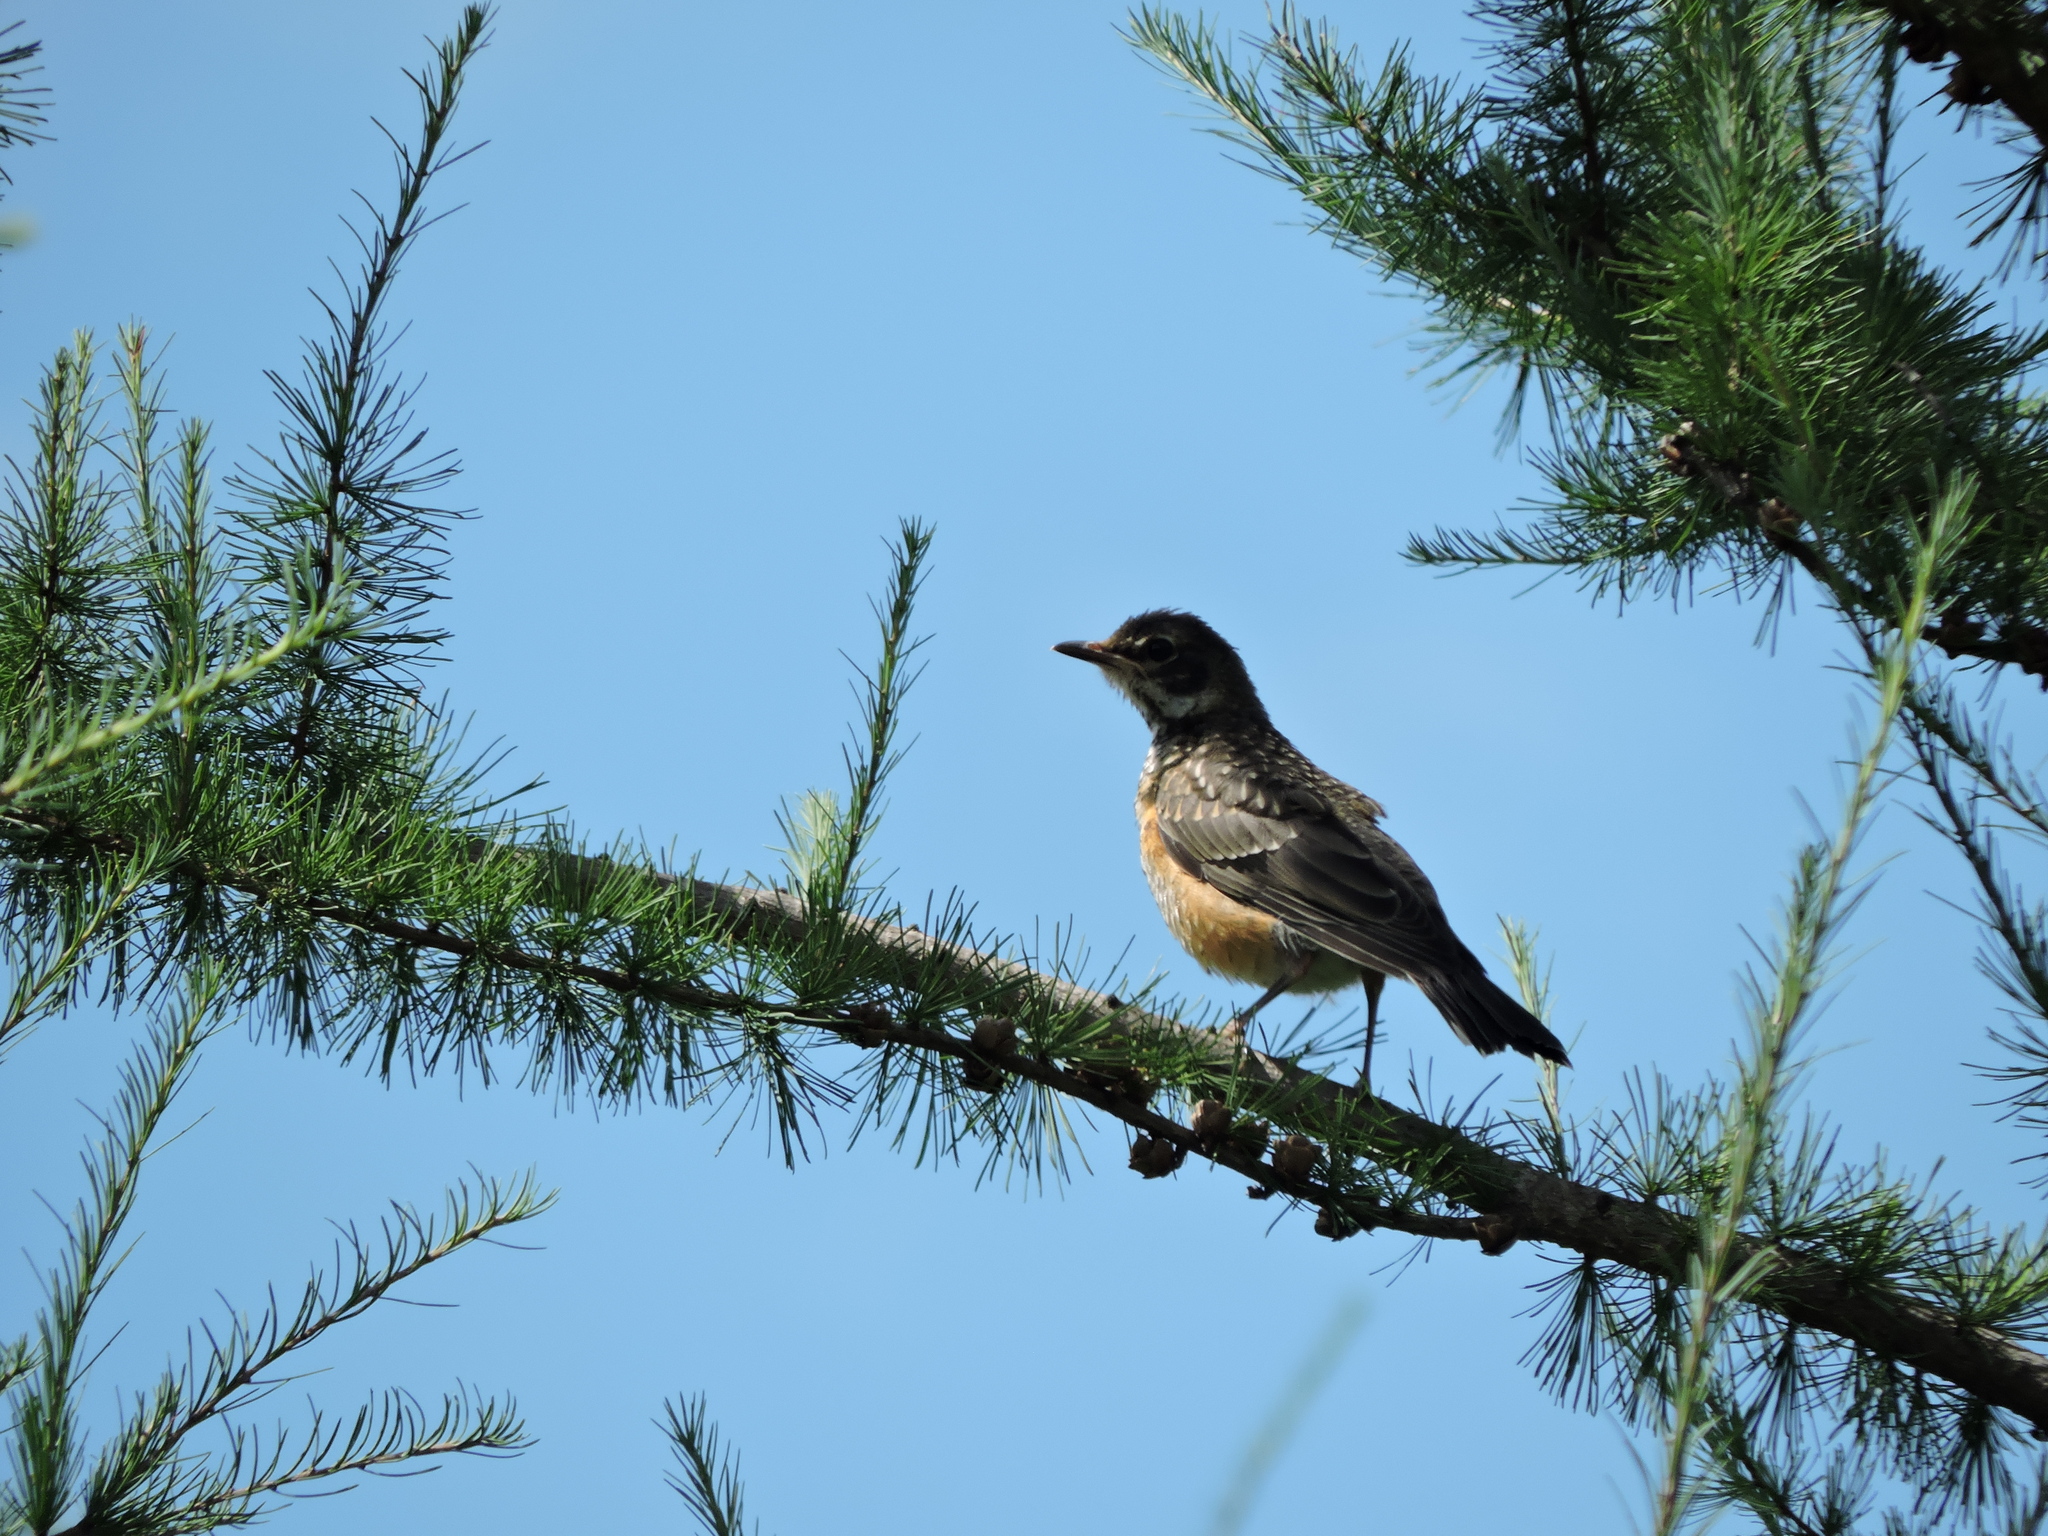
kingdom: Animalia
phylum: Chordata
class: Aves
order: Passeriformes
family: Turdidae
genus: Turdus
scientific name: Turdus migratorius
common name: American robin
